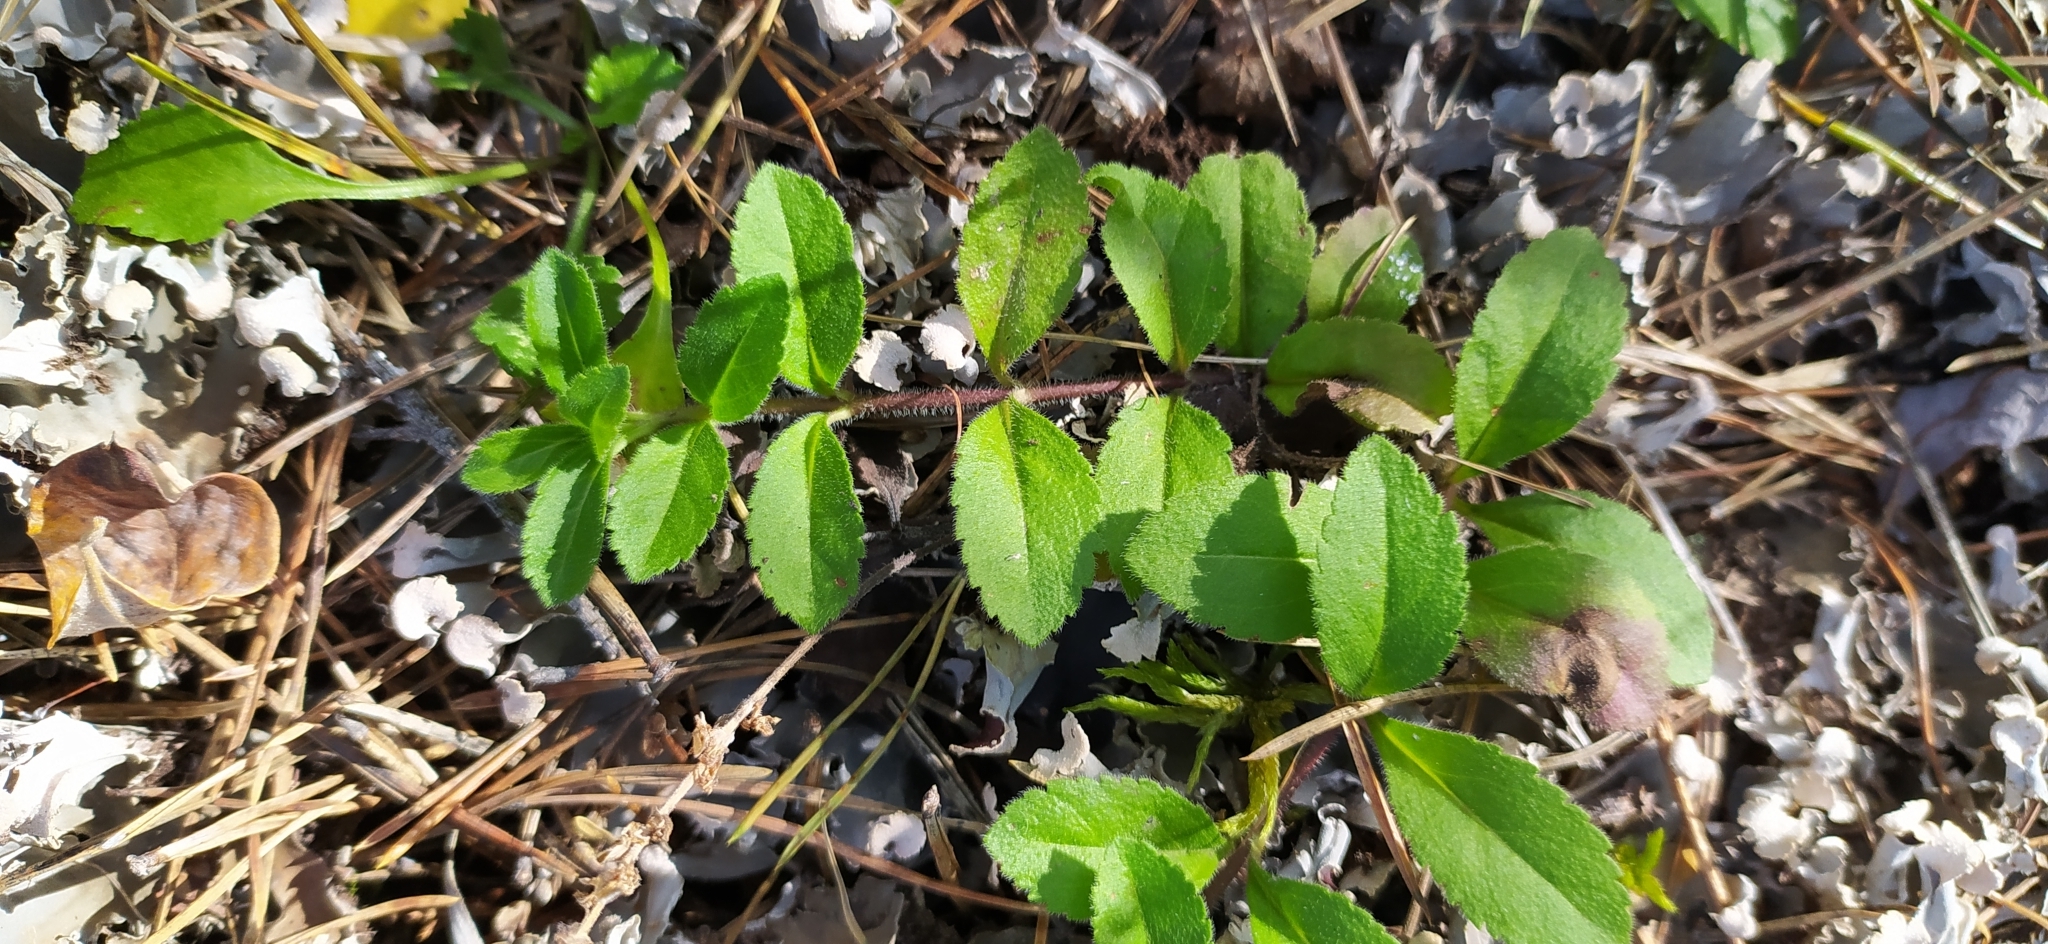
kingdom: Plantae
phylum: Tracheophyta
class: Magnoliopsida
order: Lamiales
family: Plantaginaceae
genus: Veronica
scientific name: Veronica officinalis
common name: Common speedwell
